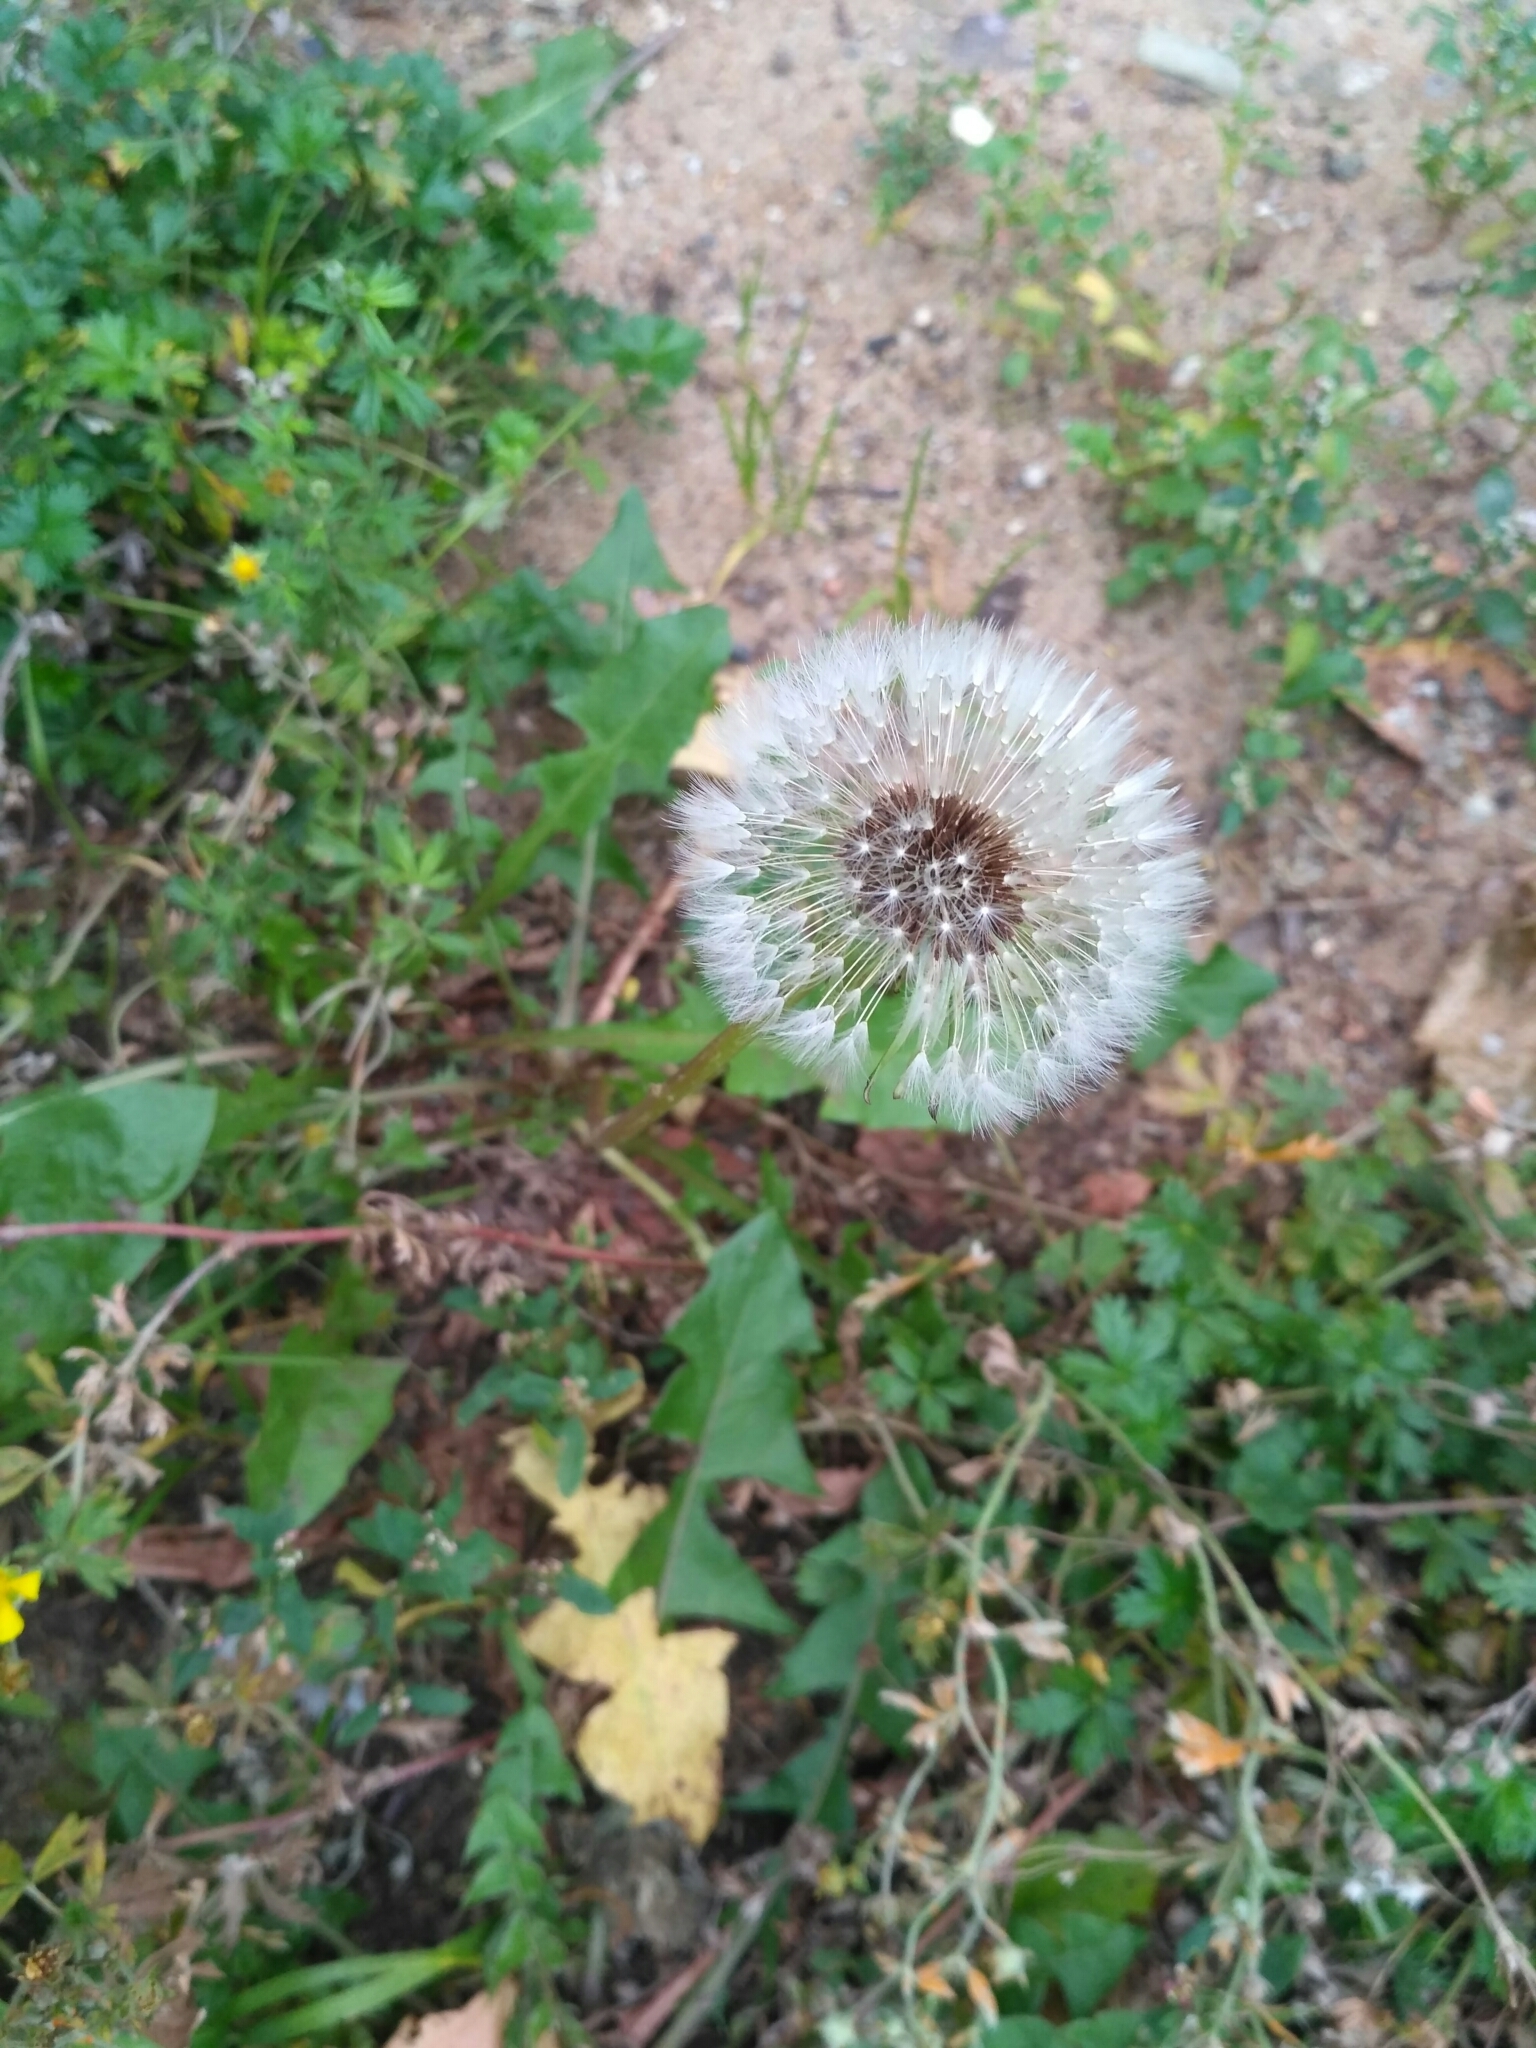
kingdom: Plantae
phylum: Tracheophyta
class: Magnoliopsida
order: Asterales
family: Asteraceae
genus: Taraxacum
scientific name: Taraxacum officinale
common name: Common dandelion
